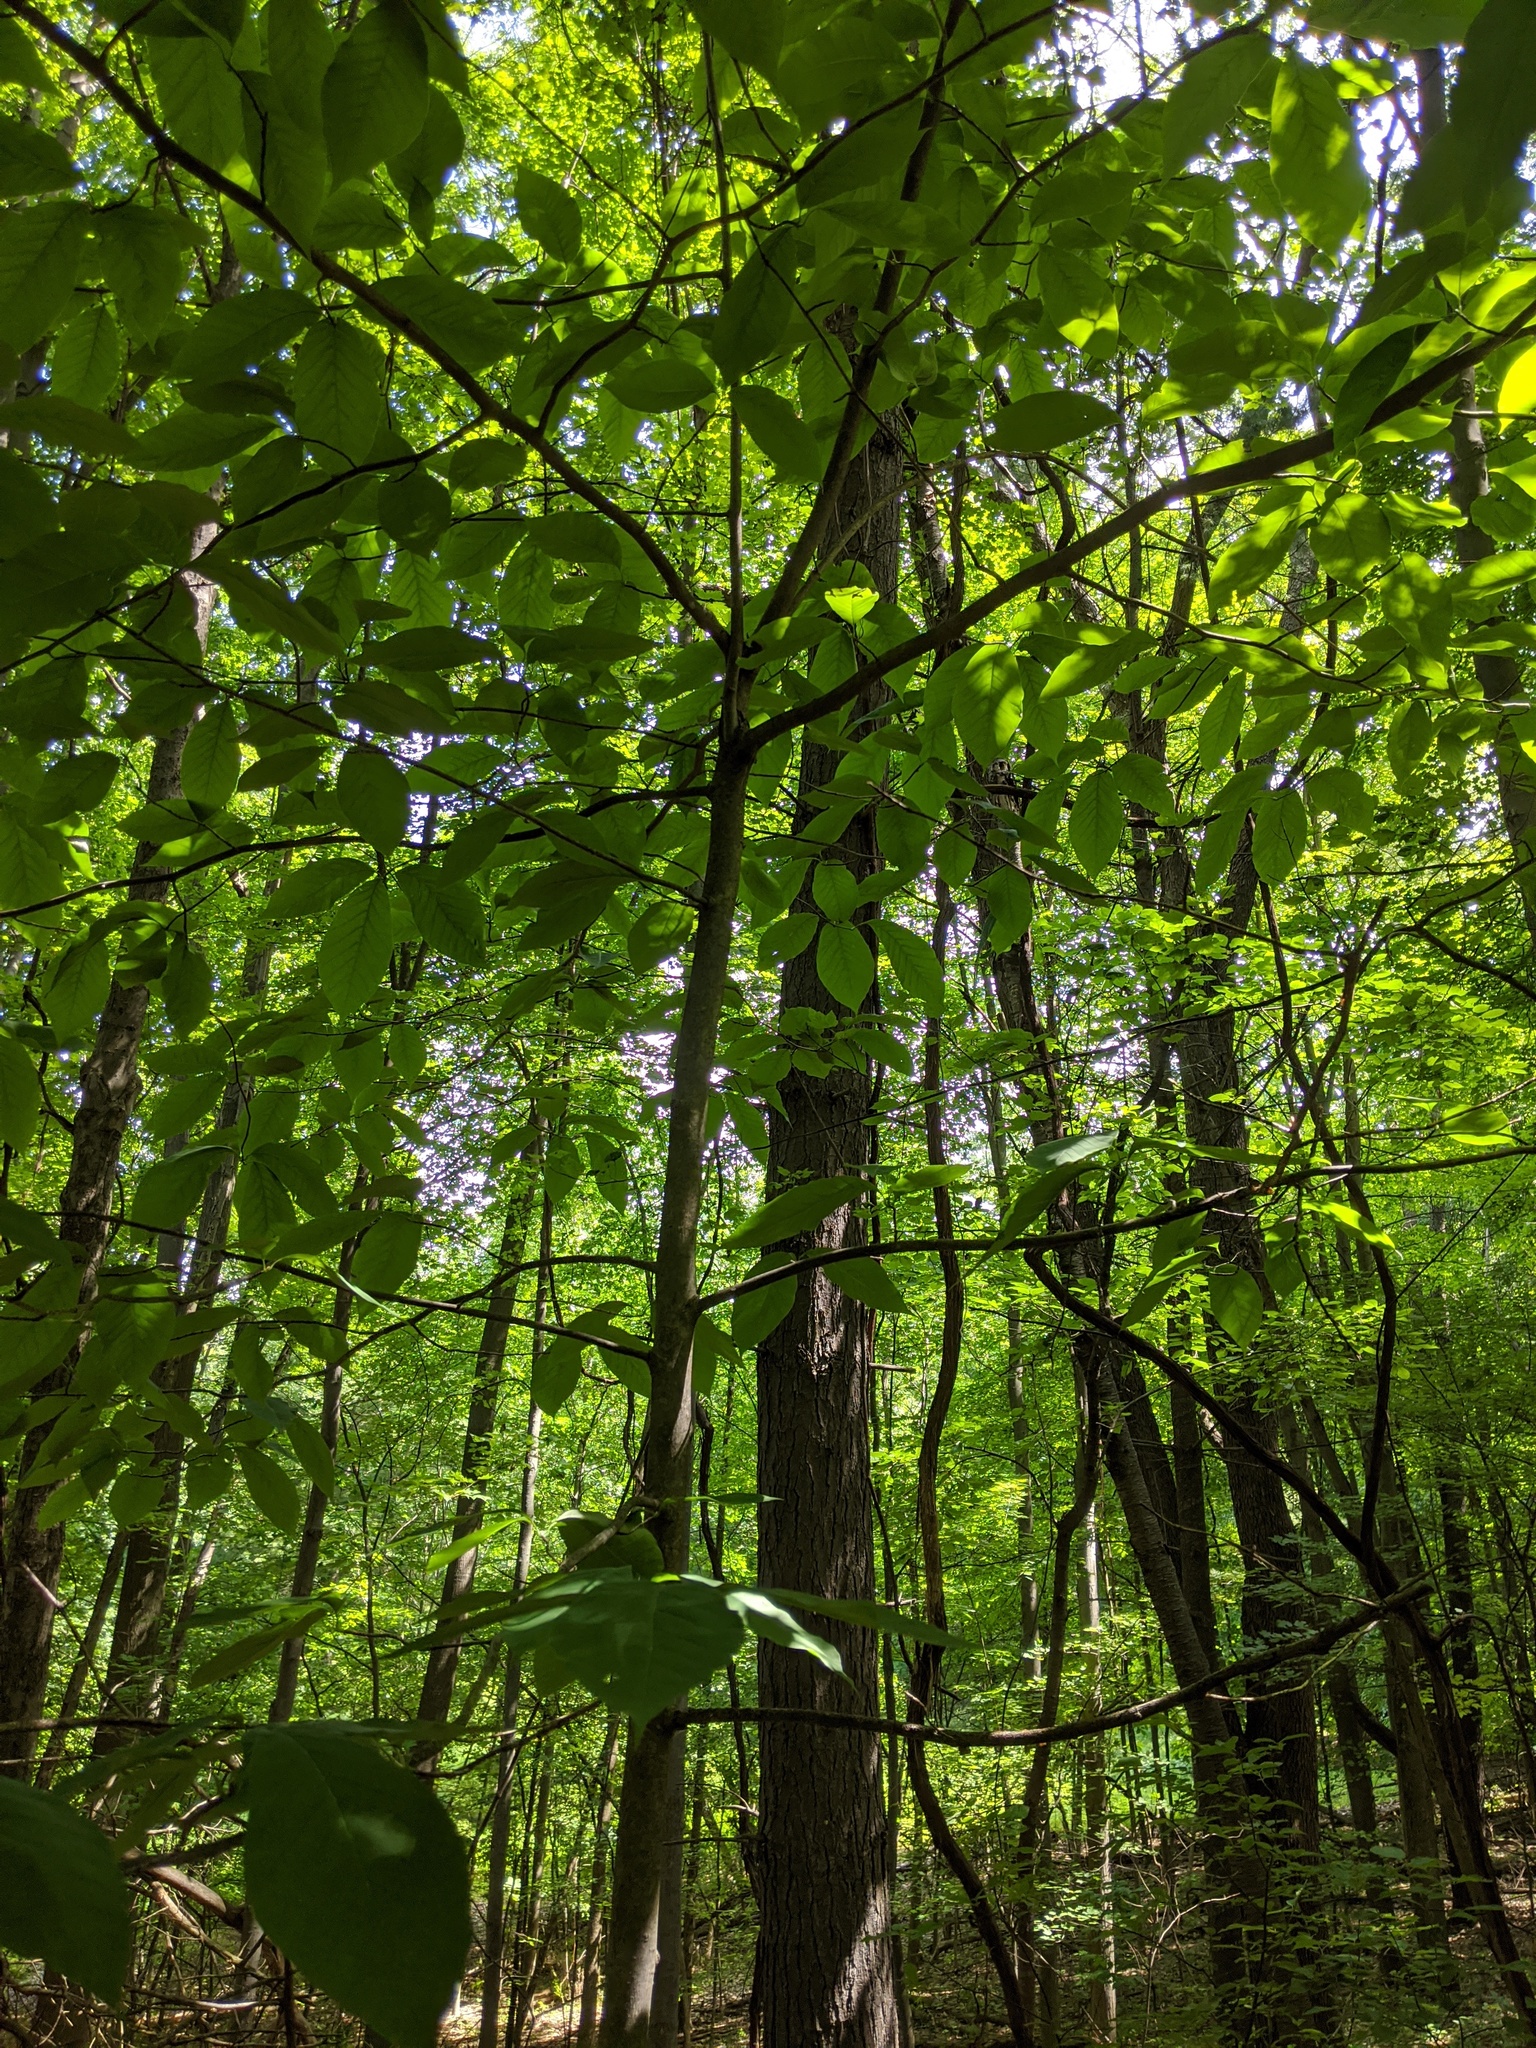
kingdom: Plantae
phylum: Tracheophyta
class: Magnoliopsida
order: Magnoliales
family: Magnoliaceae
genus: Magnolia
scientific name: Magnolia acuminata
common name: Cucumber magnolia
